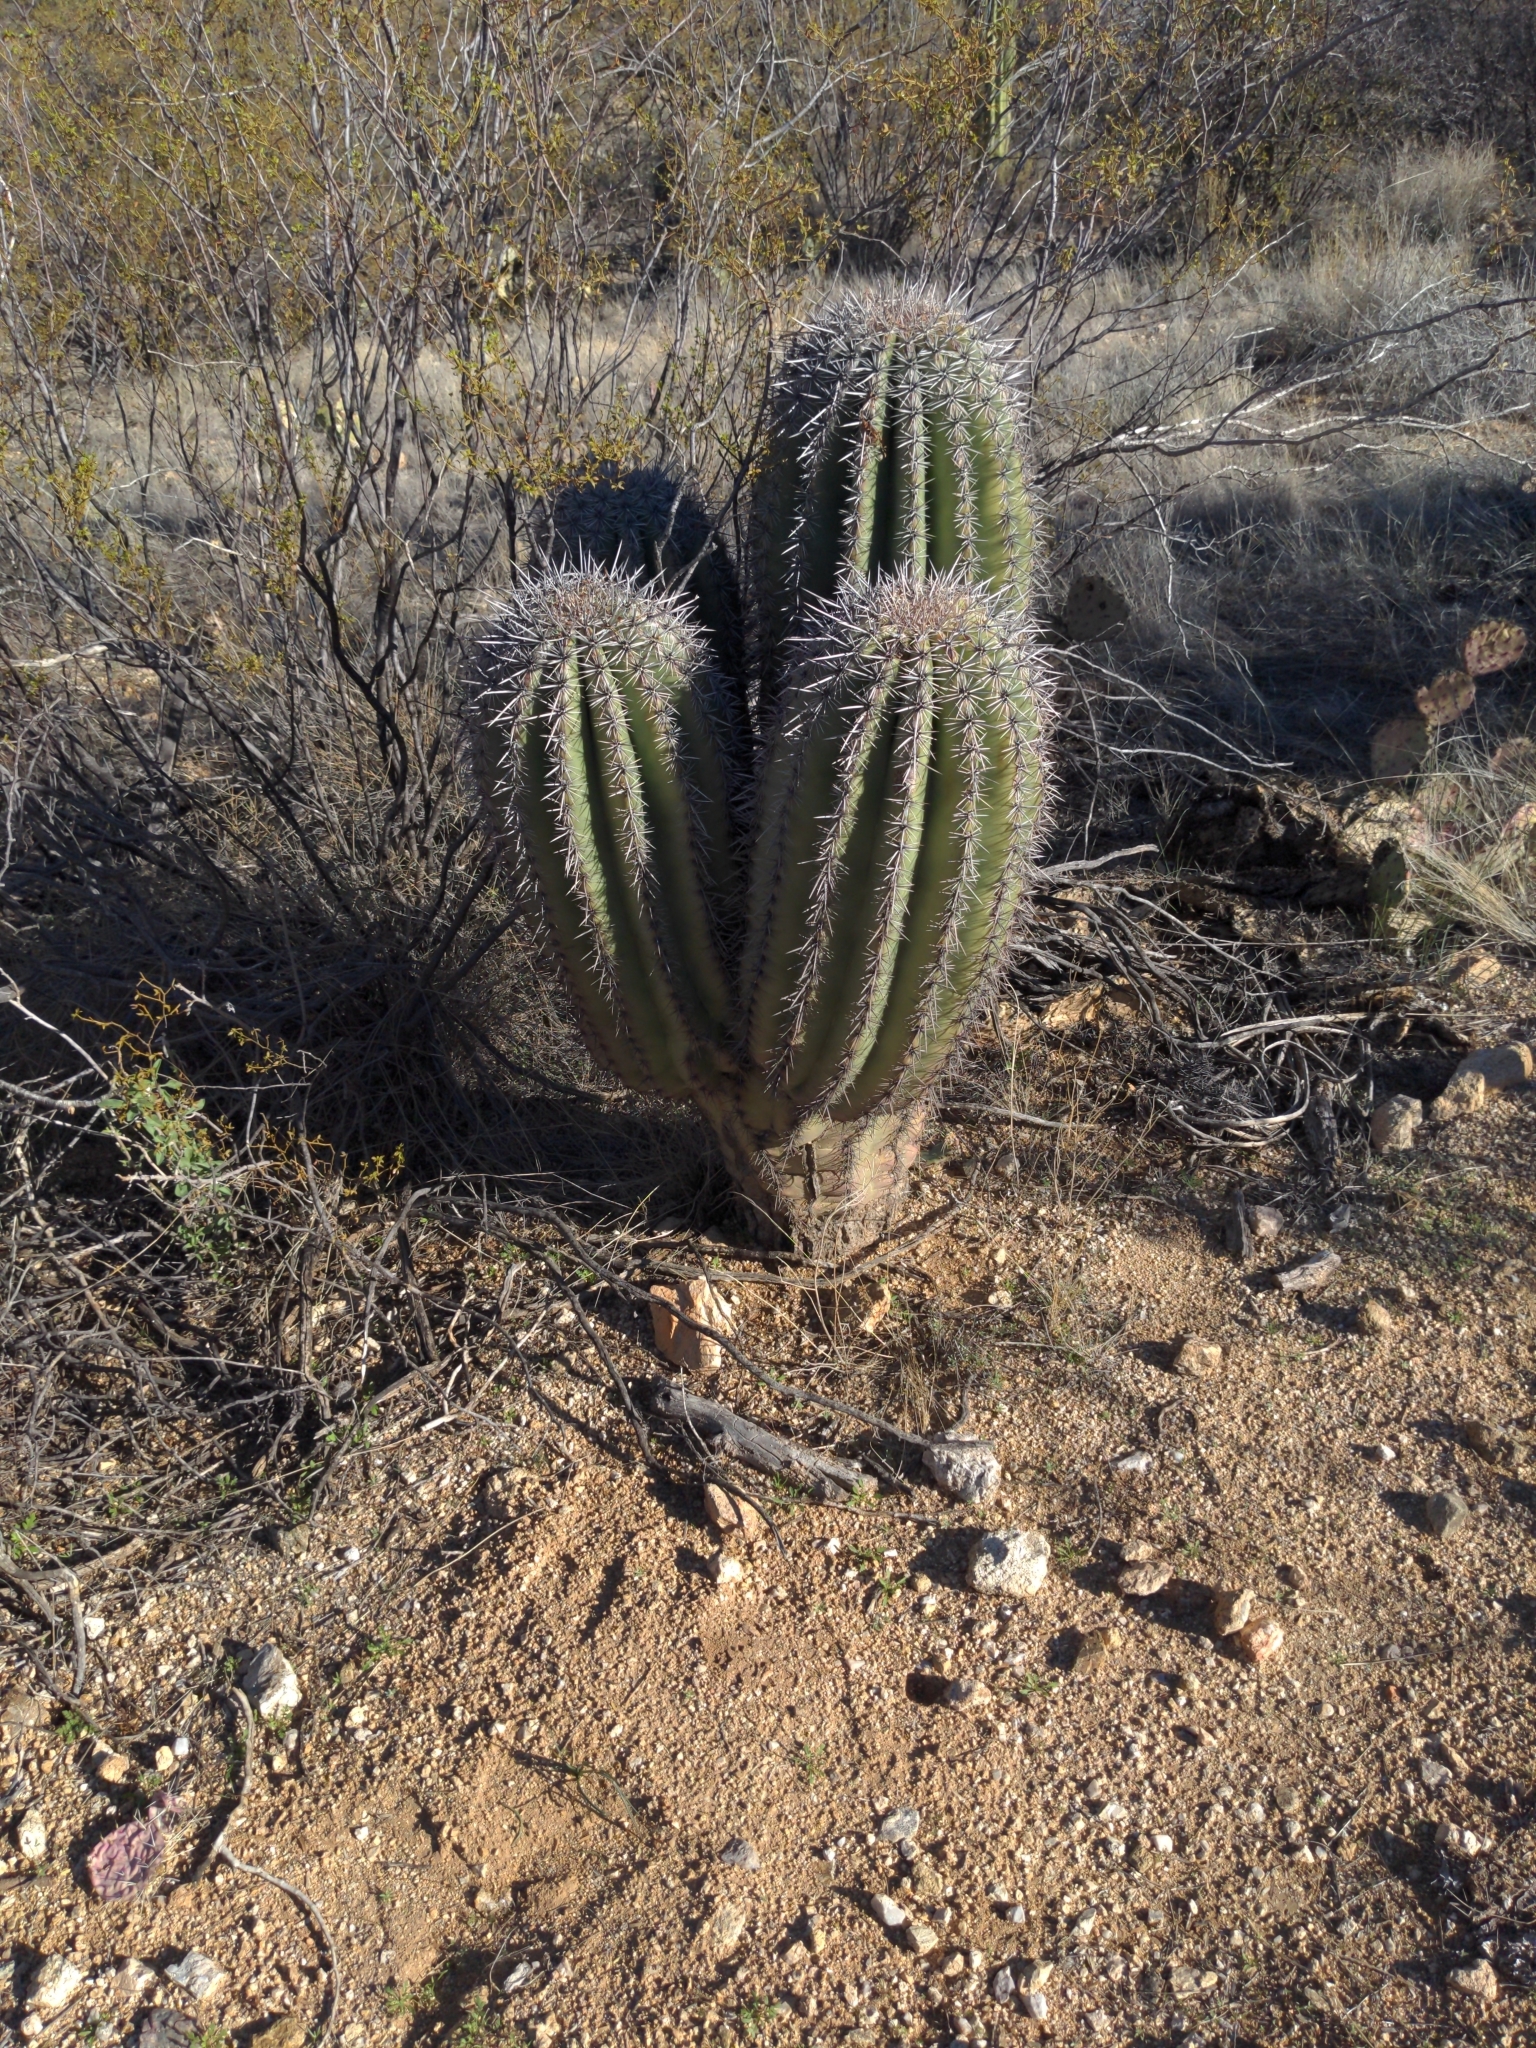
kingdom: Plantae
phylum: Tracheophyta
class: Magnoliopsida
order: Caryophyllales
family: Cactaceae
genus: Carnegiea
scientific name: Carnegiea gigantea
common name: Saguaro
